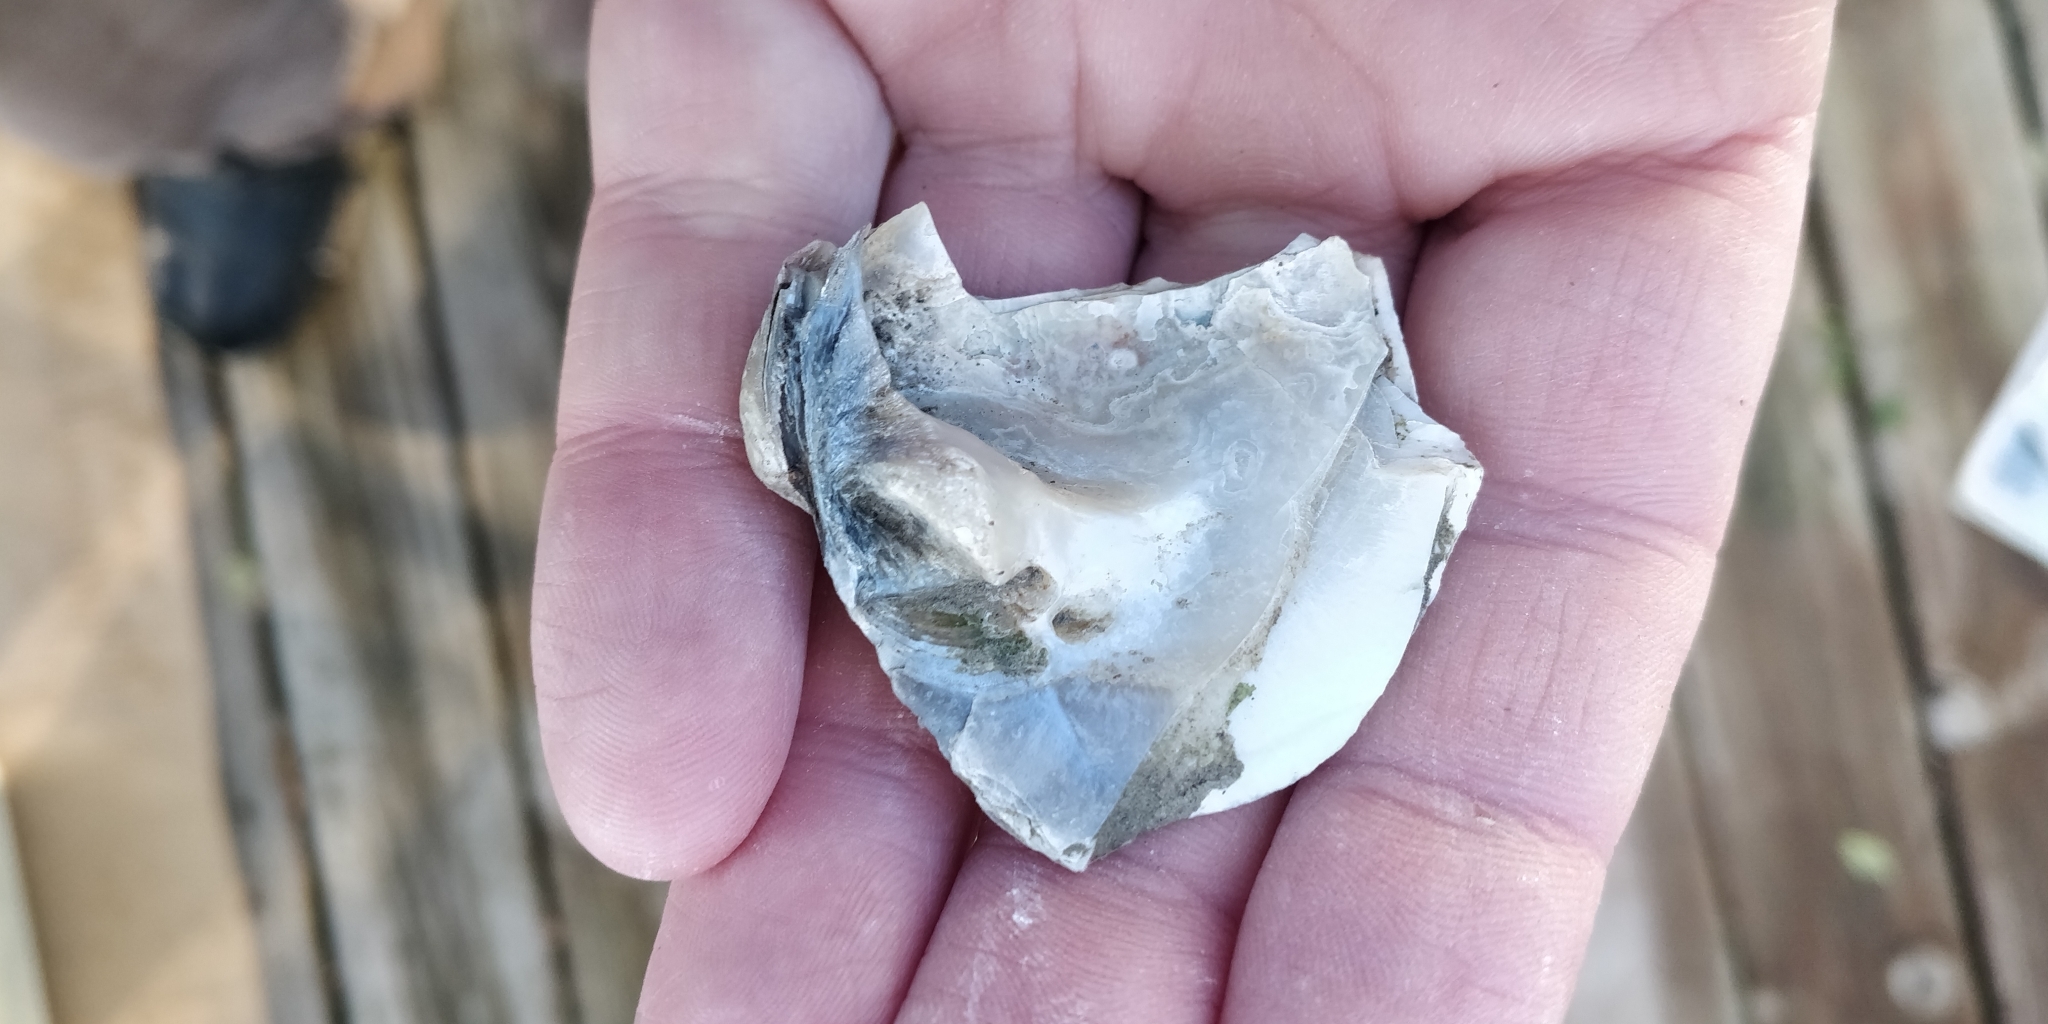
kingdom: Animalia
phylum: Mollusca
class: Bivalvia
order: Unionida
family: Unionidae
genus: Quadrula
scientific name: Quadrula quadrula
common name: Mapleleaf
